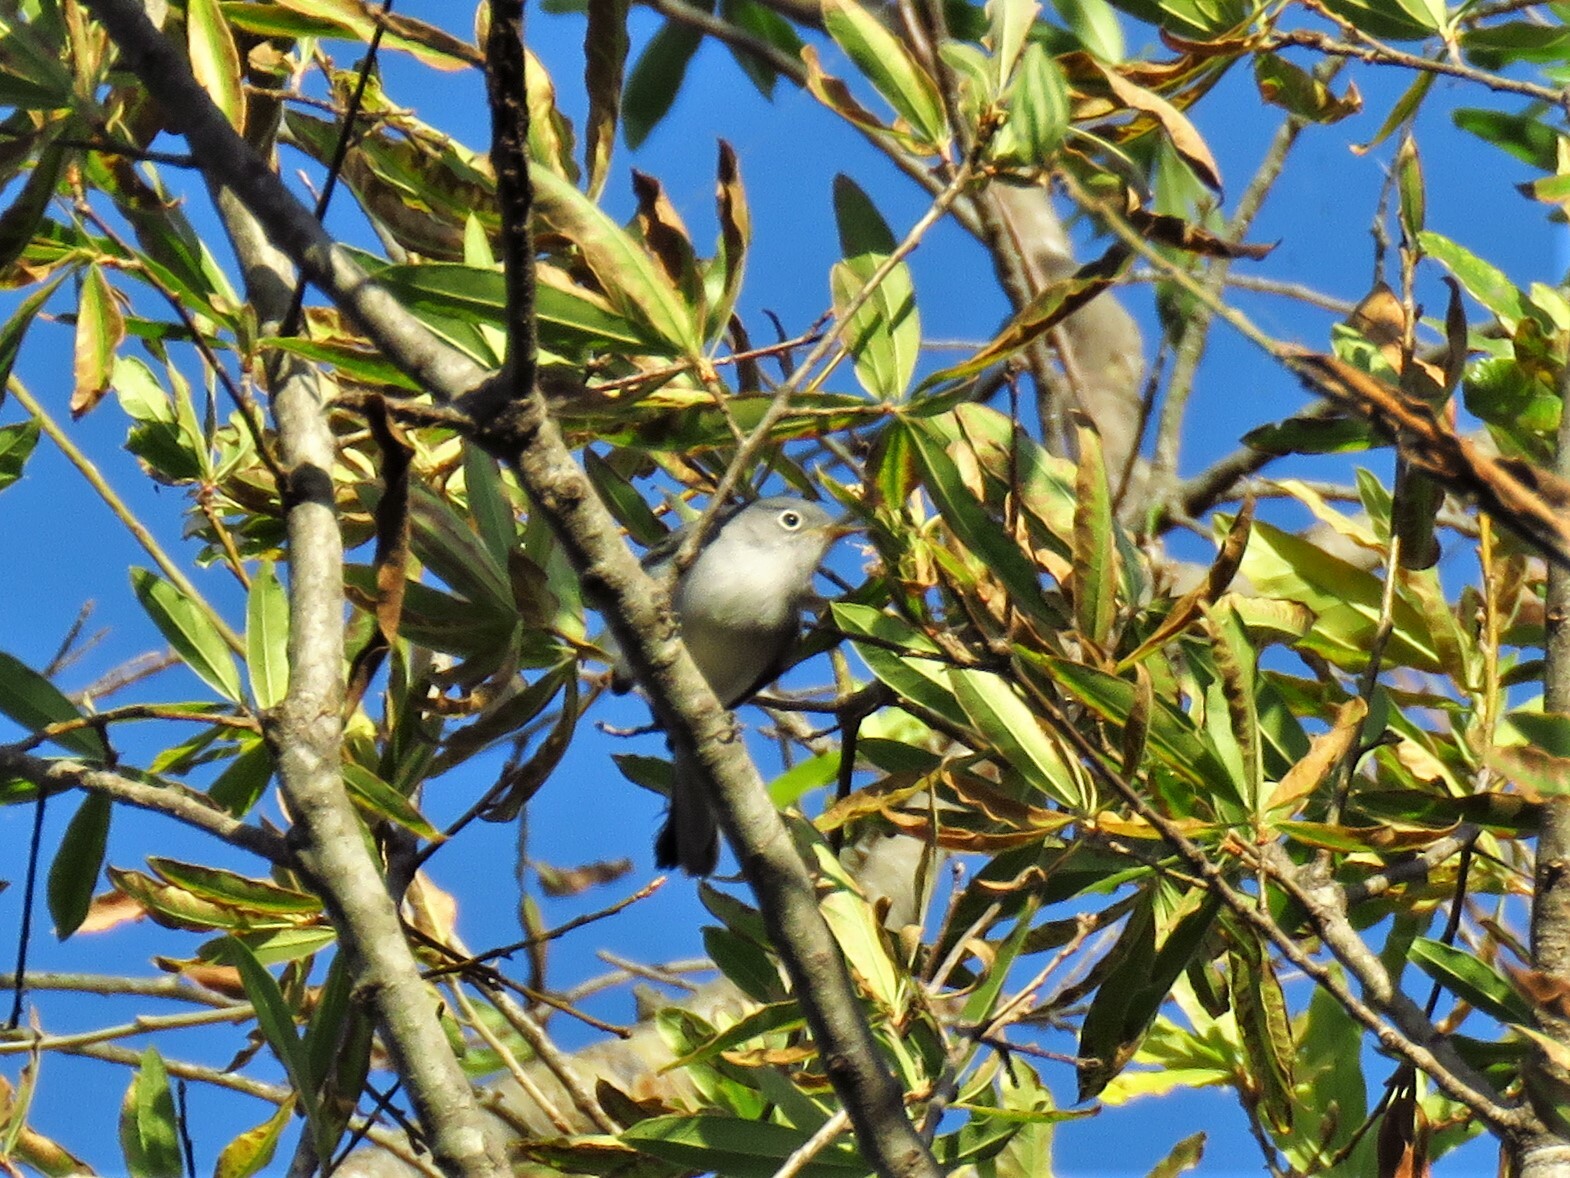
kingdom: Animalia
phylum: Chordata
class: Aves
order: Passeriformes
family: Polioptilidae
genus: Polioptila
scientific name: Polioptila caerulea
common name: Blue-gray gnatcatcher
